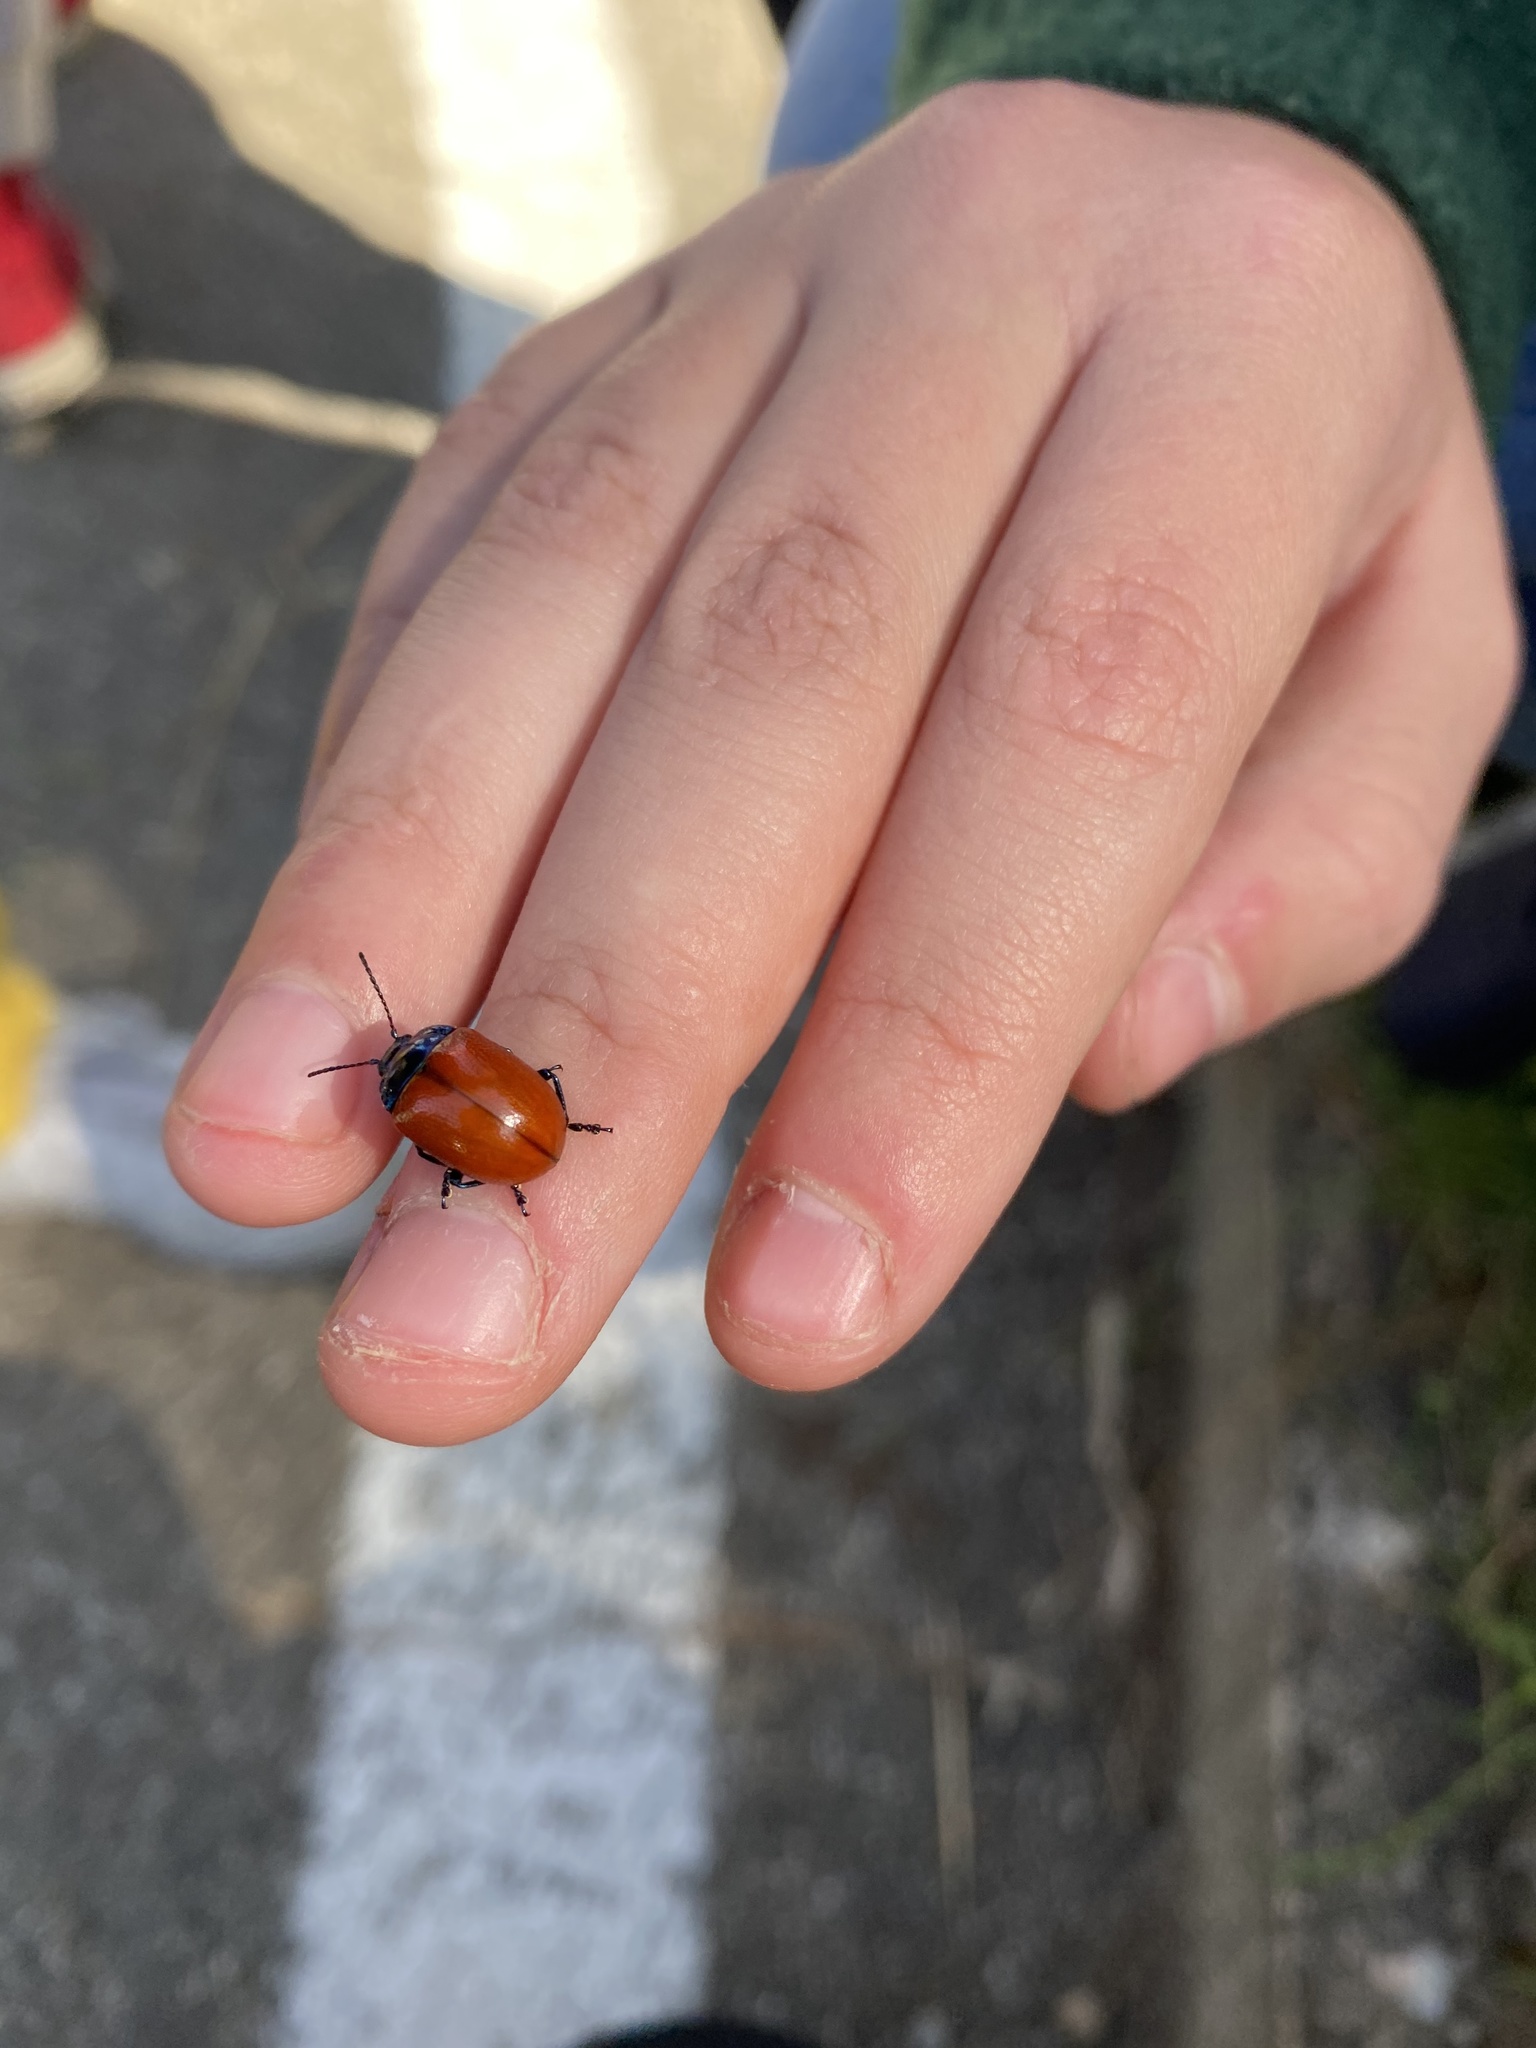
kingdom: Animalia
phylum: Arthropoda
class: Insecta
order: Coleoptera
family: Chrysomelidae
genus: Chrysolina
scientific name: Chrysolina grossa
